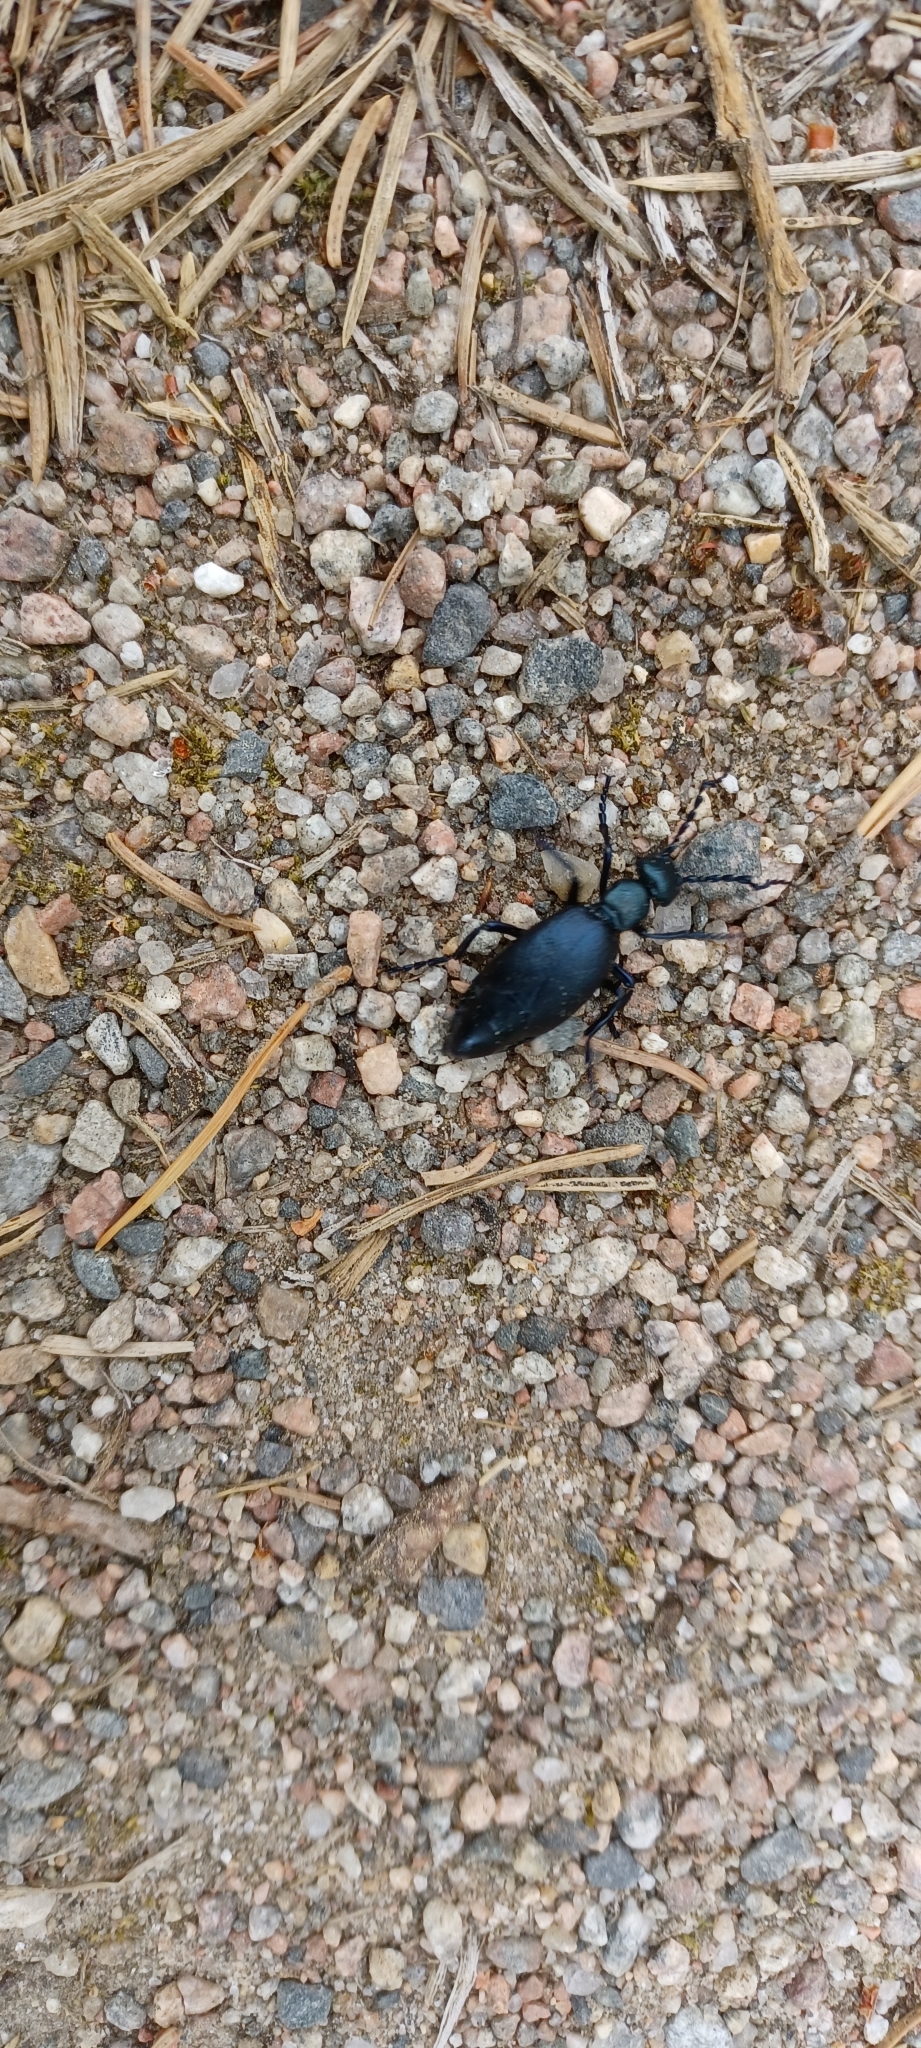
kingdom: Animalia
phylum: Arthropoda
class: Insecta
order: Coleoptera
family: Meloidae
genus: Meloe
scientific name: Meloe violaceus
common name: Violet oil-beetle
